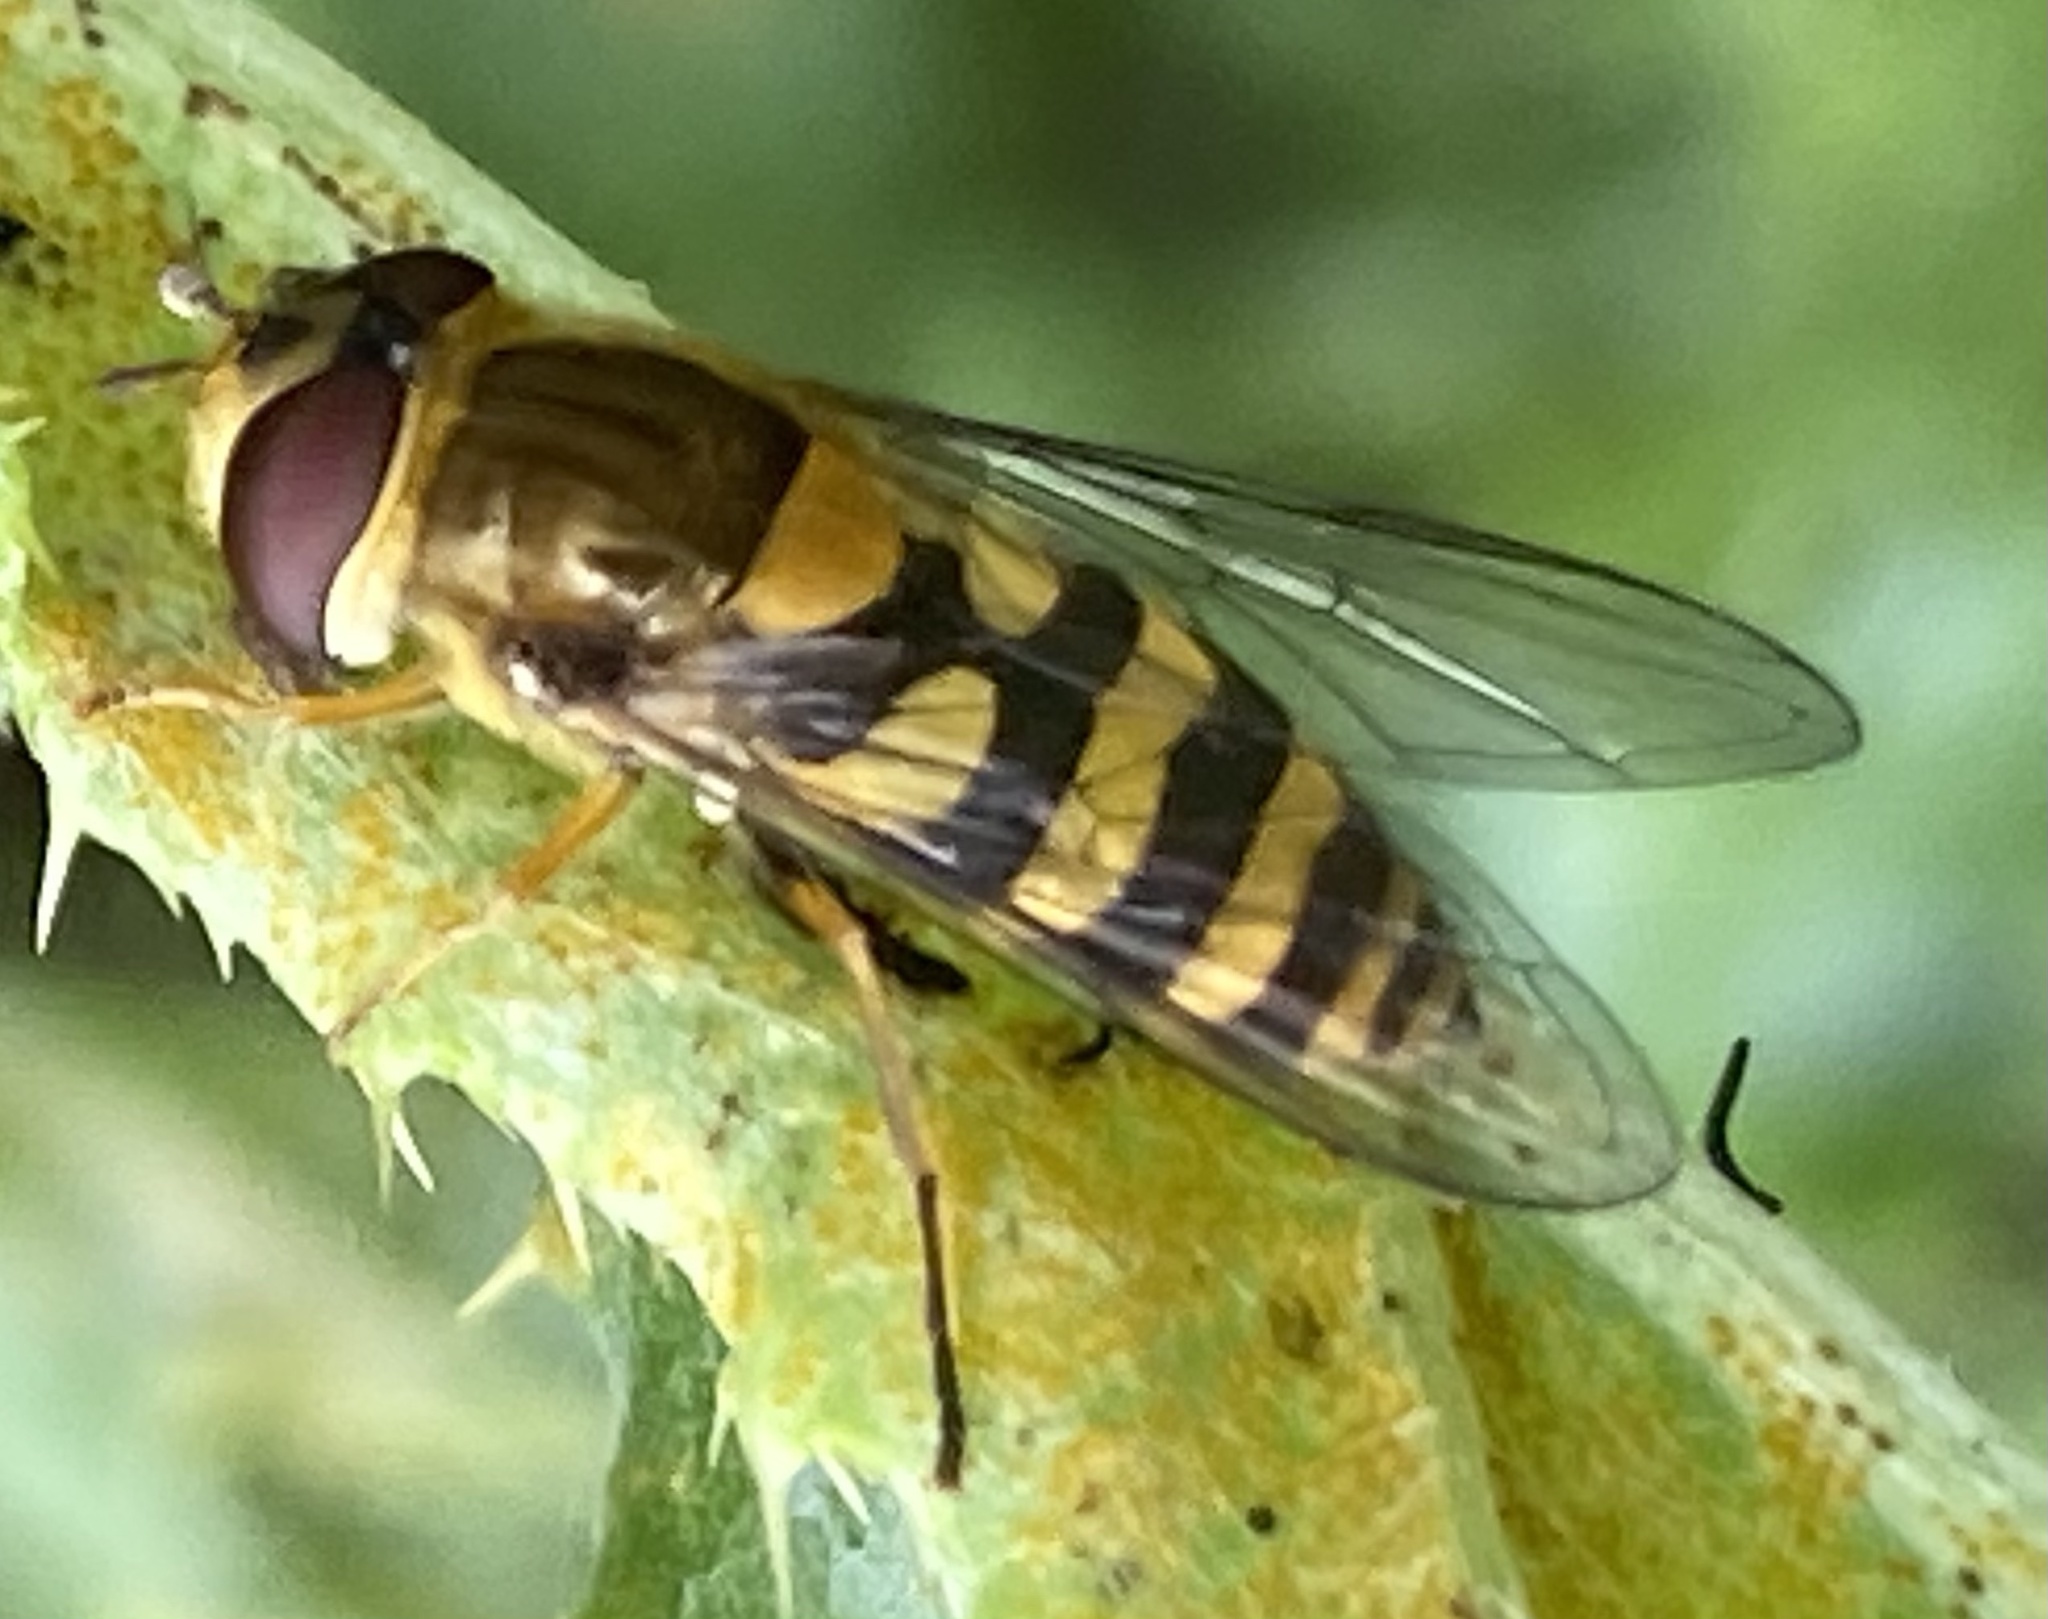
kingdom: Animalia
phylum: Arthropoda
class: Insecta
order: Diptera
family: Syrphidae
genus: Syrphus
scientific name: Syrphus
